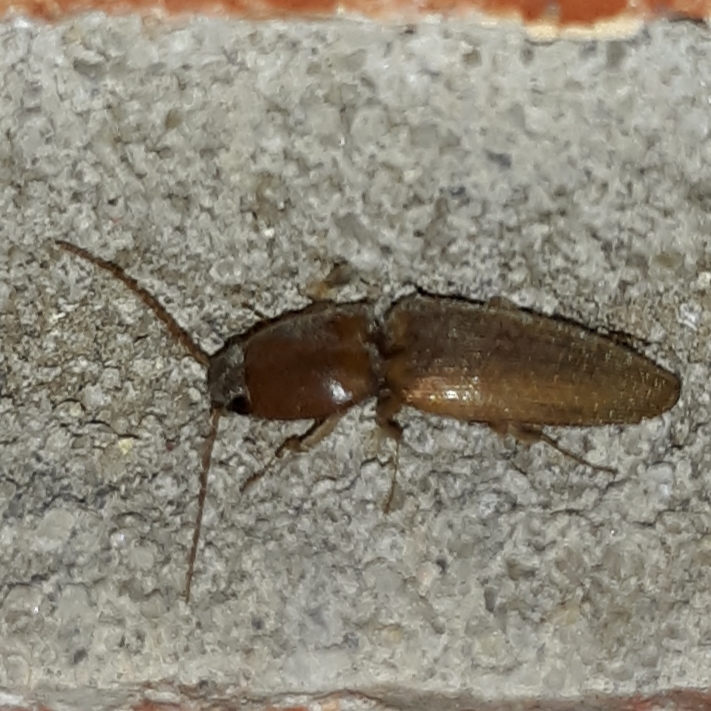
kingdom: Animalia
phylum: Arthropoda
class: Insecta
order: Coleoptera
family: Elateridae
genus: Monocrepidius
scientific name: Monocrepidius scissus
